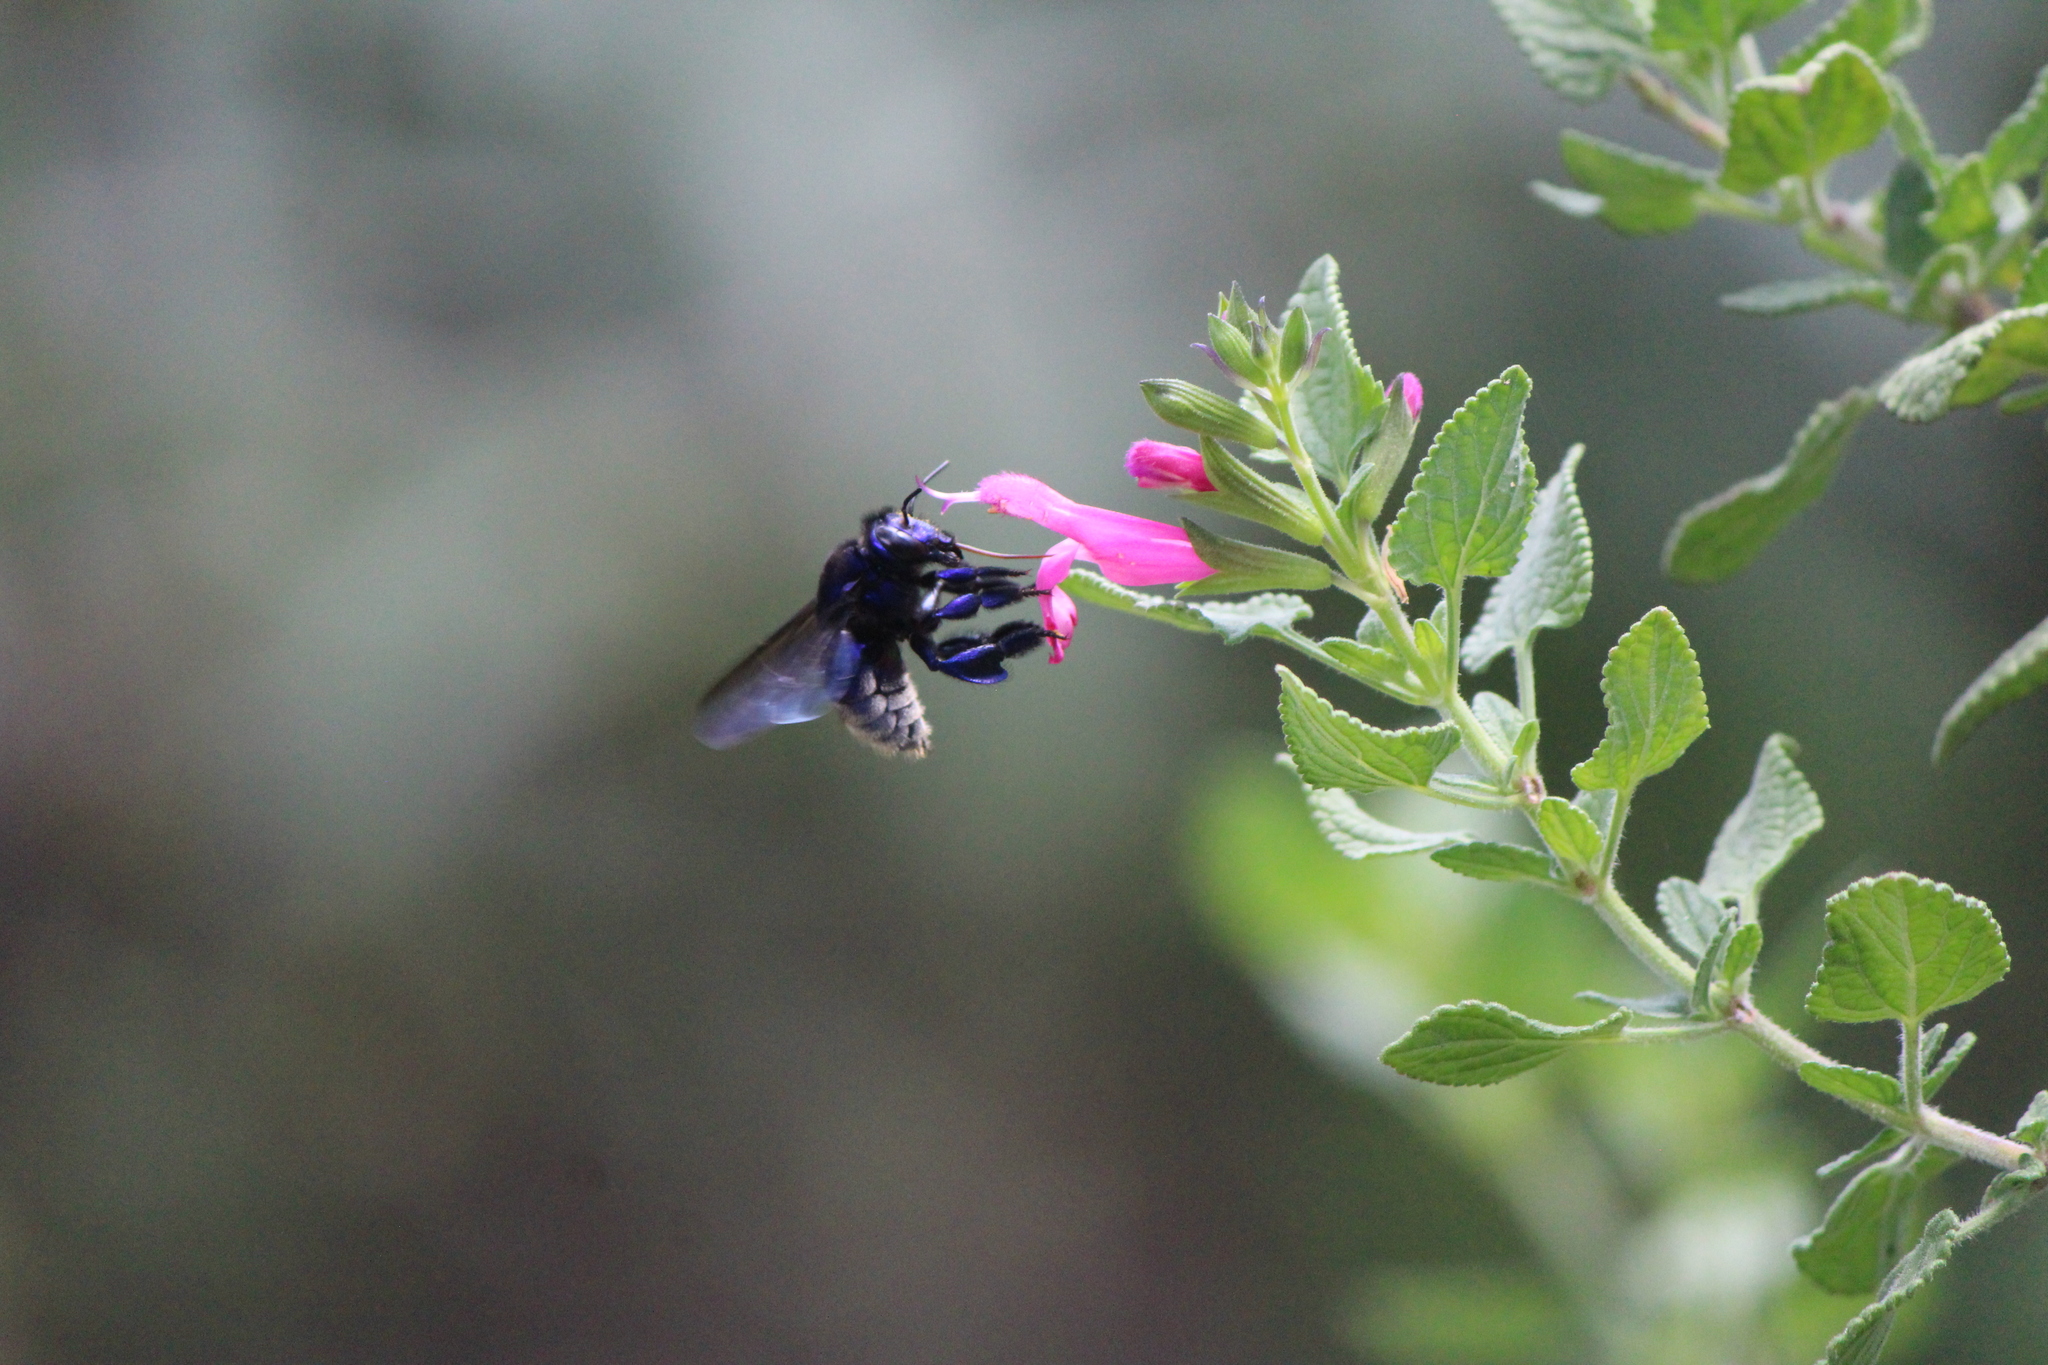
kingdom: Animalia
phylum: Arthropoda
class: Insecta
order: Hymenoptera
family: Apidae
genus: Eufriesea
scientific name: Eufriesea caerulescens
